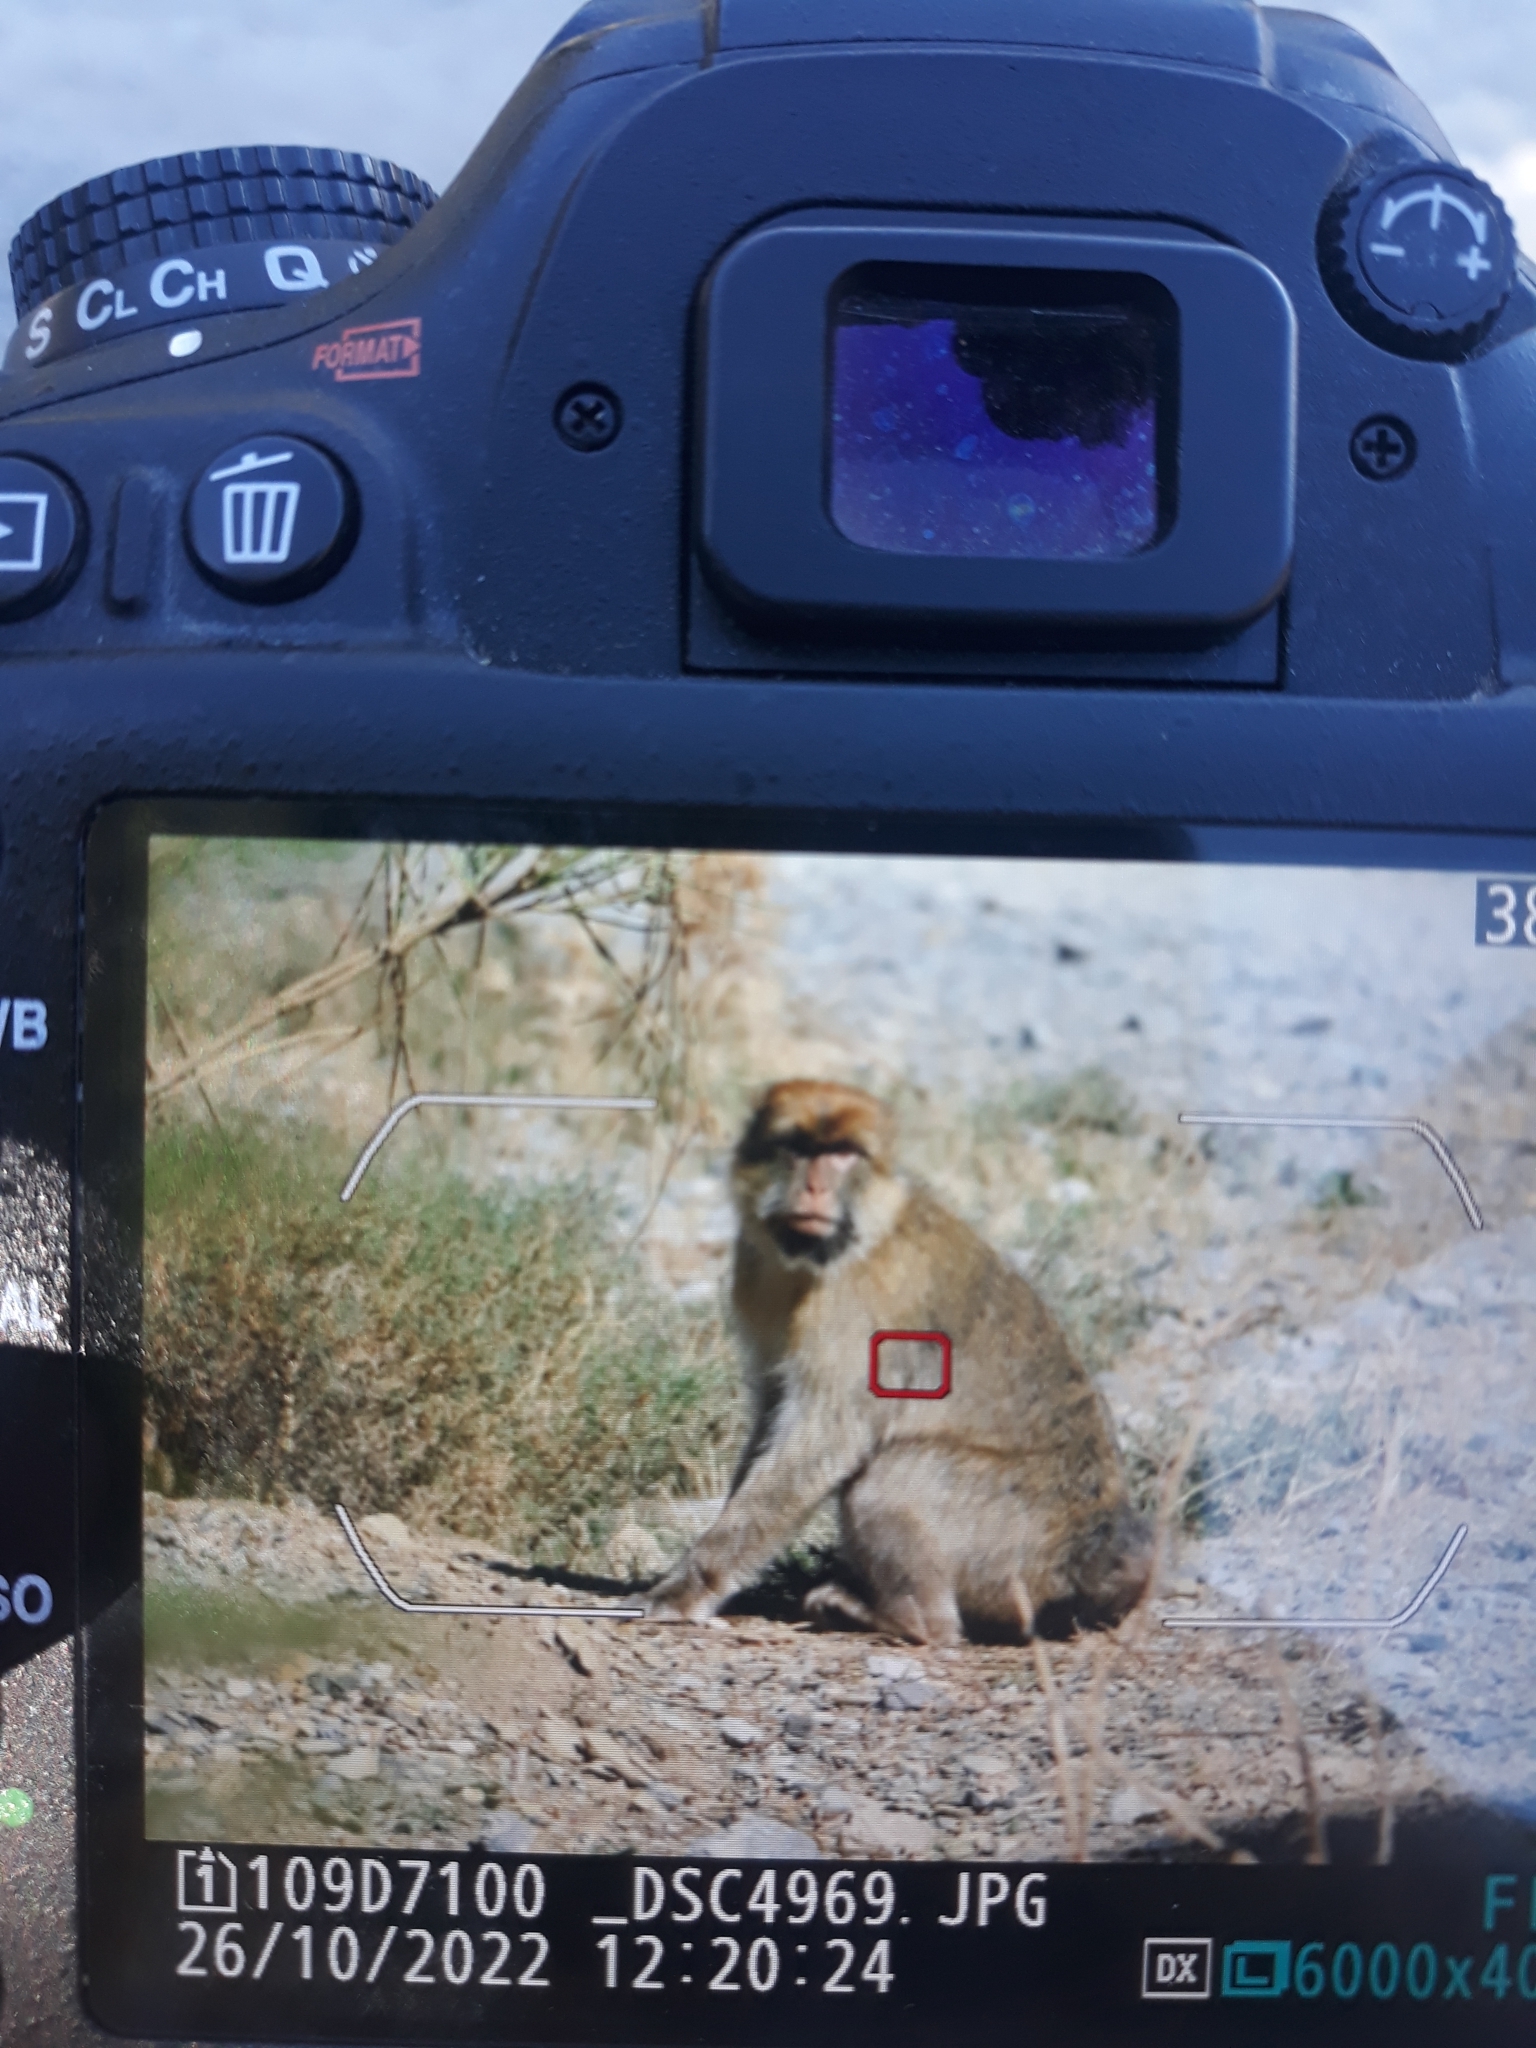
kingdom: Animalia
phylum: Chordata
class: Mammalia
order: Primates
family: Cercopithecidae
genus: Macaca
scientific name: Macaca sylvanus
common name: Barbary macaque
